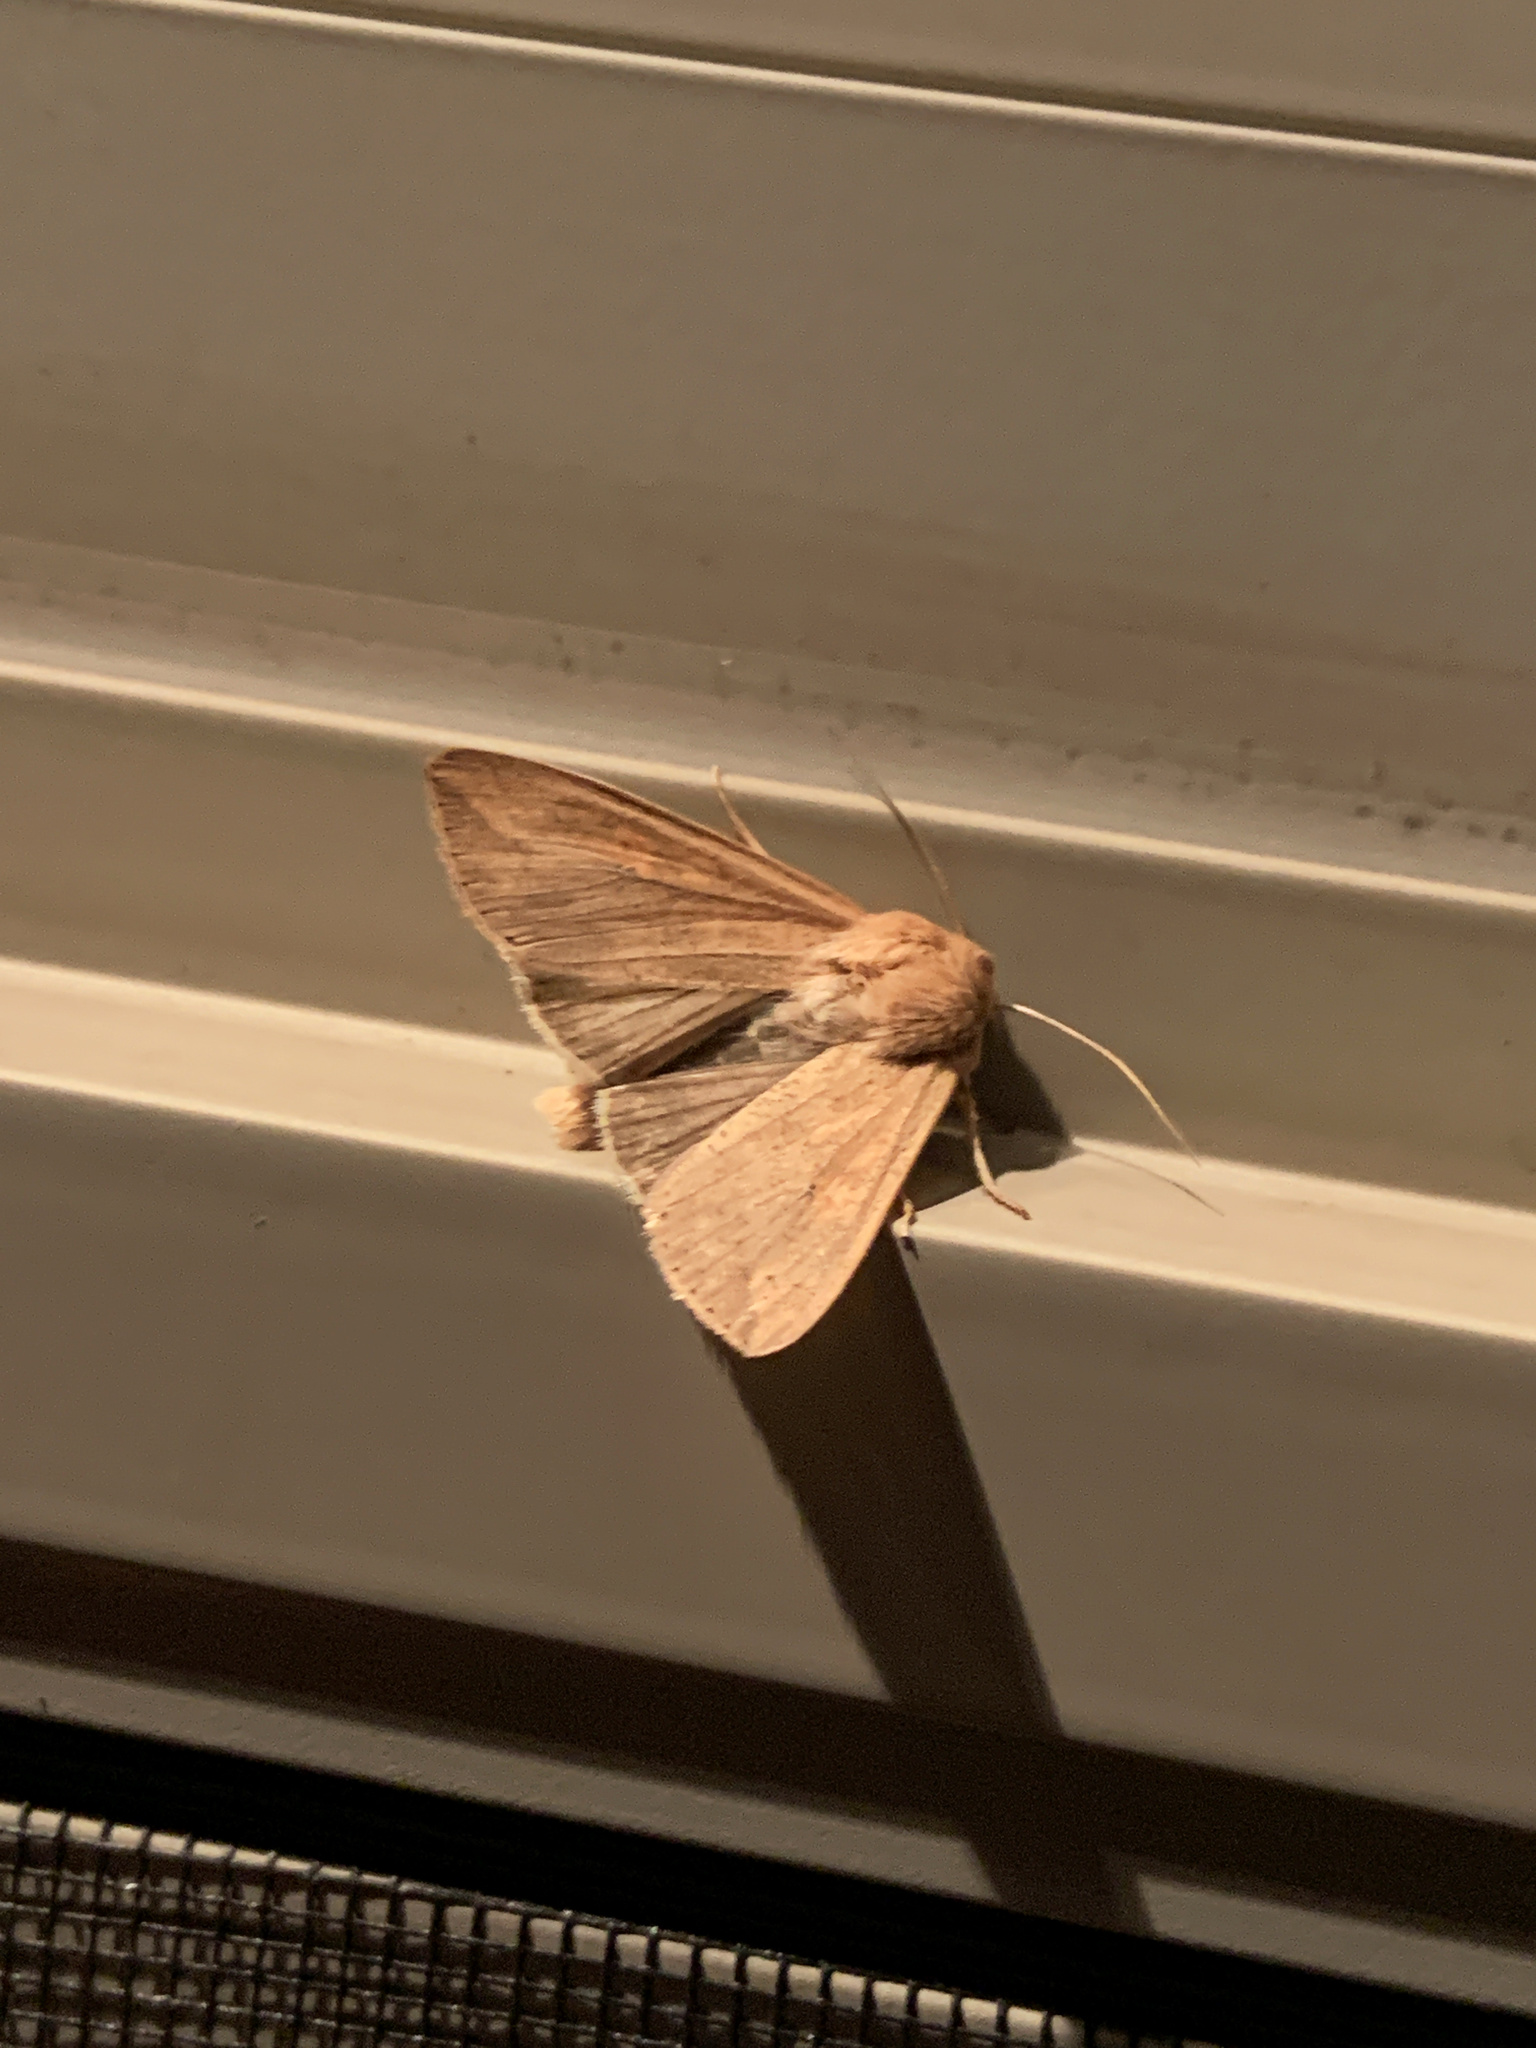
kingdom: Animalia
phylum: Arthropoda
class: Insecta
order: Lepidoptera
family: Noctuidae
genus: Mythimna
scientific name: Mythimna unipuncta
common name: White-speck
